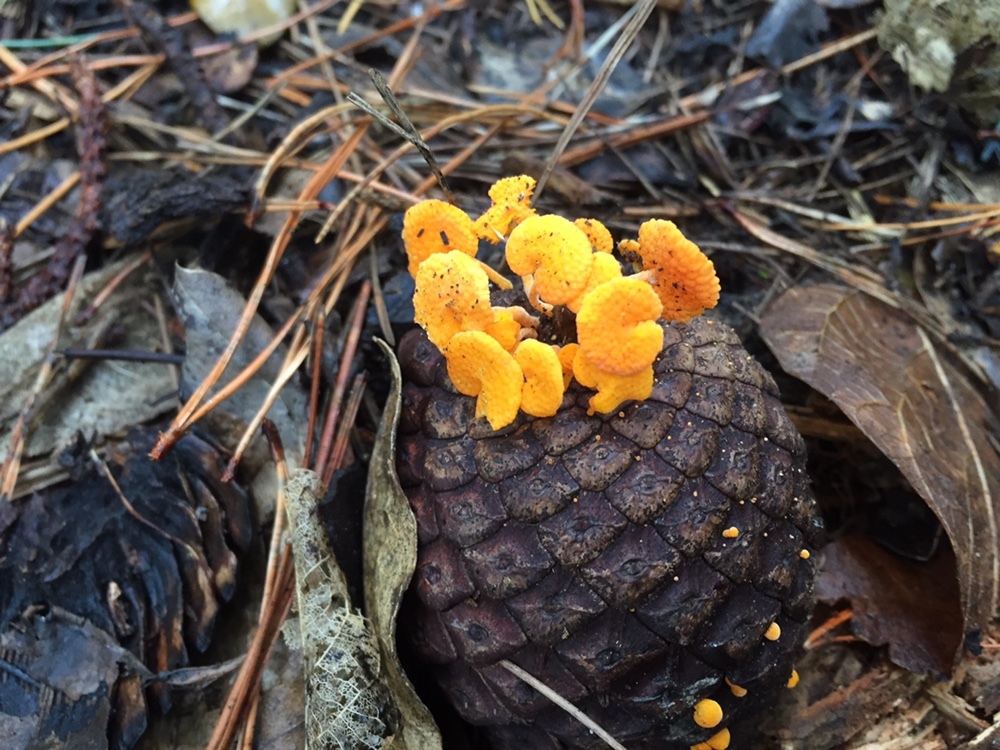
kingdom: Fungi
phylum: Basidiomycota
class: Agaricomycetes
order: Agaricales
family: Mycenaceae
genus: Favolaschia
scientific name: Favolaschia claudopus
